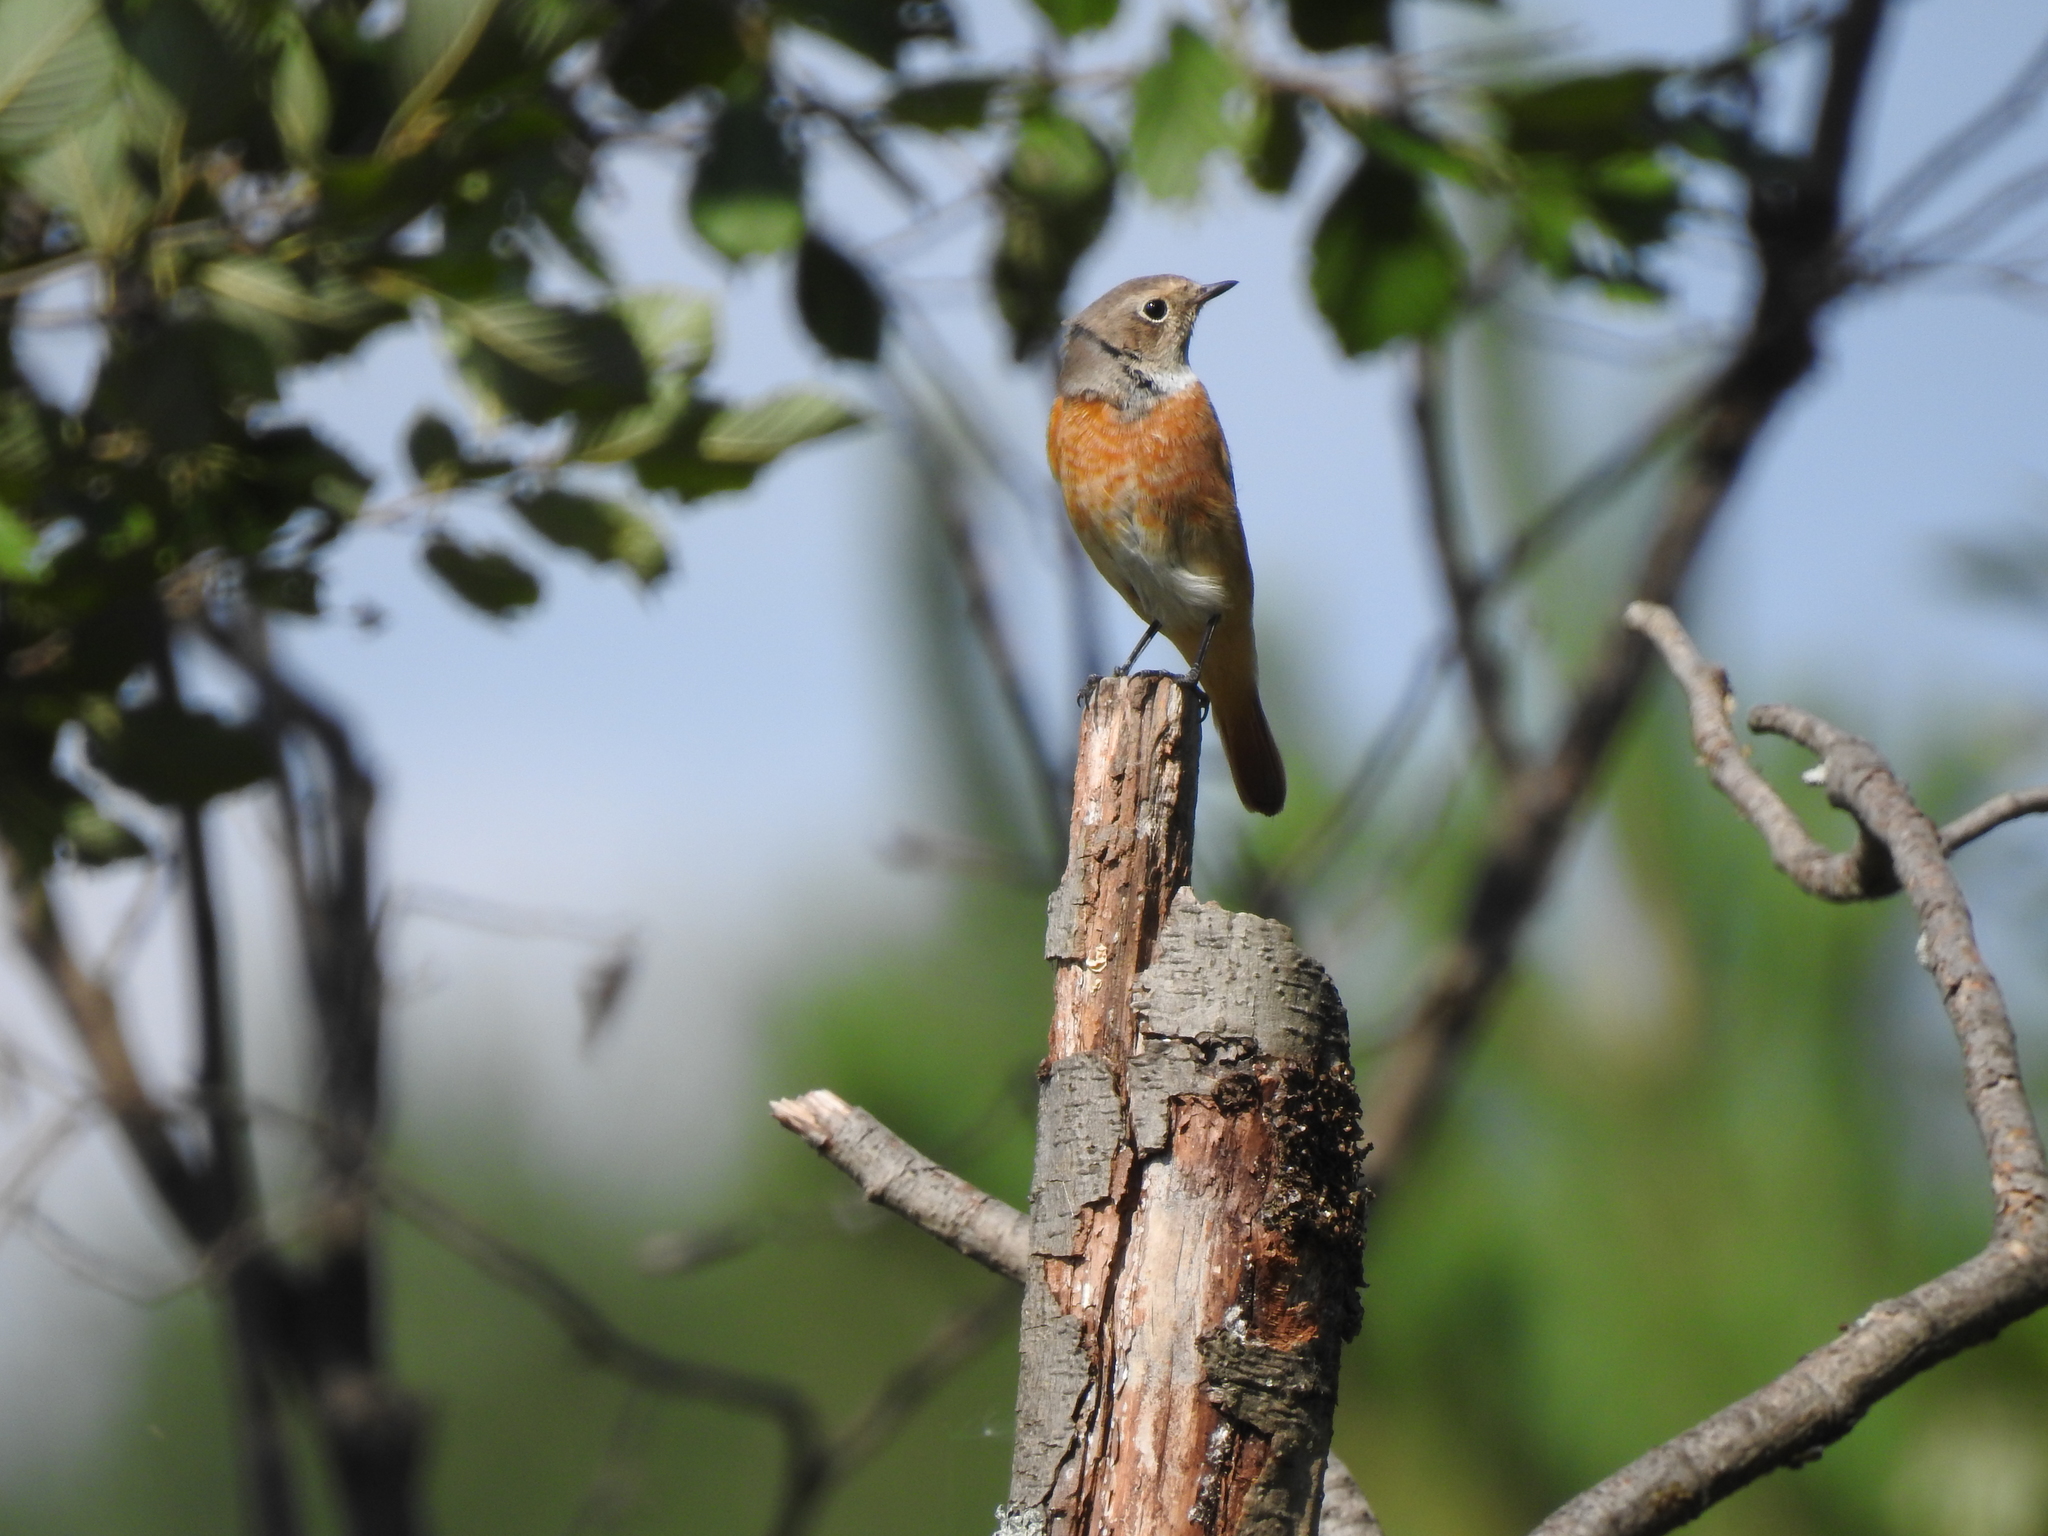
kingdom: Animalia
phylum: Chordata
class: Aves
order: Passeriformes
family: Muscicapidae
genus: Phoenicurus
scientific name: Phoenicurus phoenicurus
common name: Common redstart
